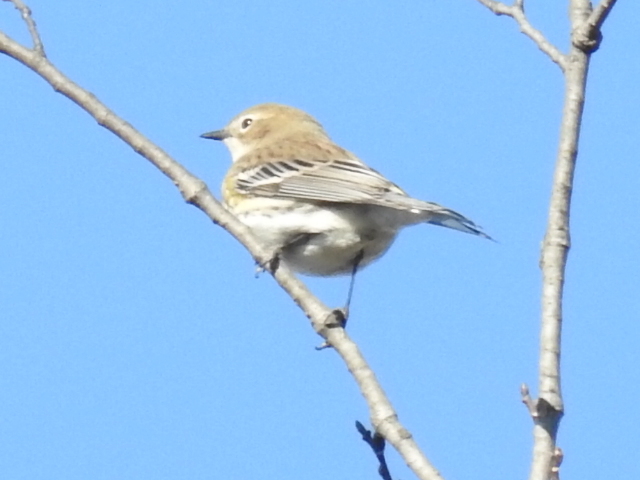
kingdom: Animalia
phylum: Chordata
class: Aves
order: Passeriformes
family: Parulidae
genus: Setophaga
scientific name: Setophaga coronata
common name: Myrtle warbler
